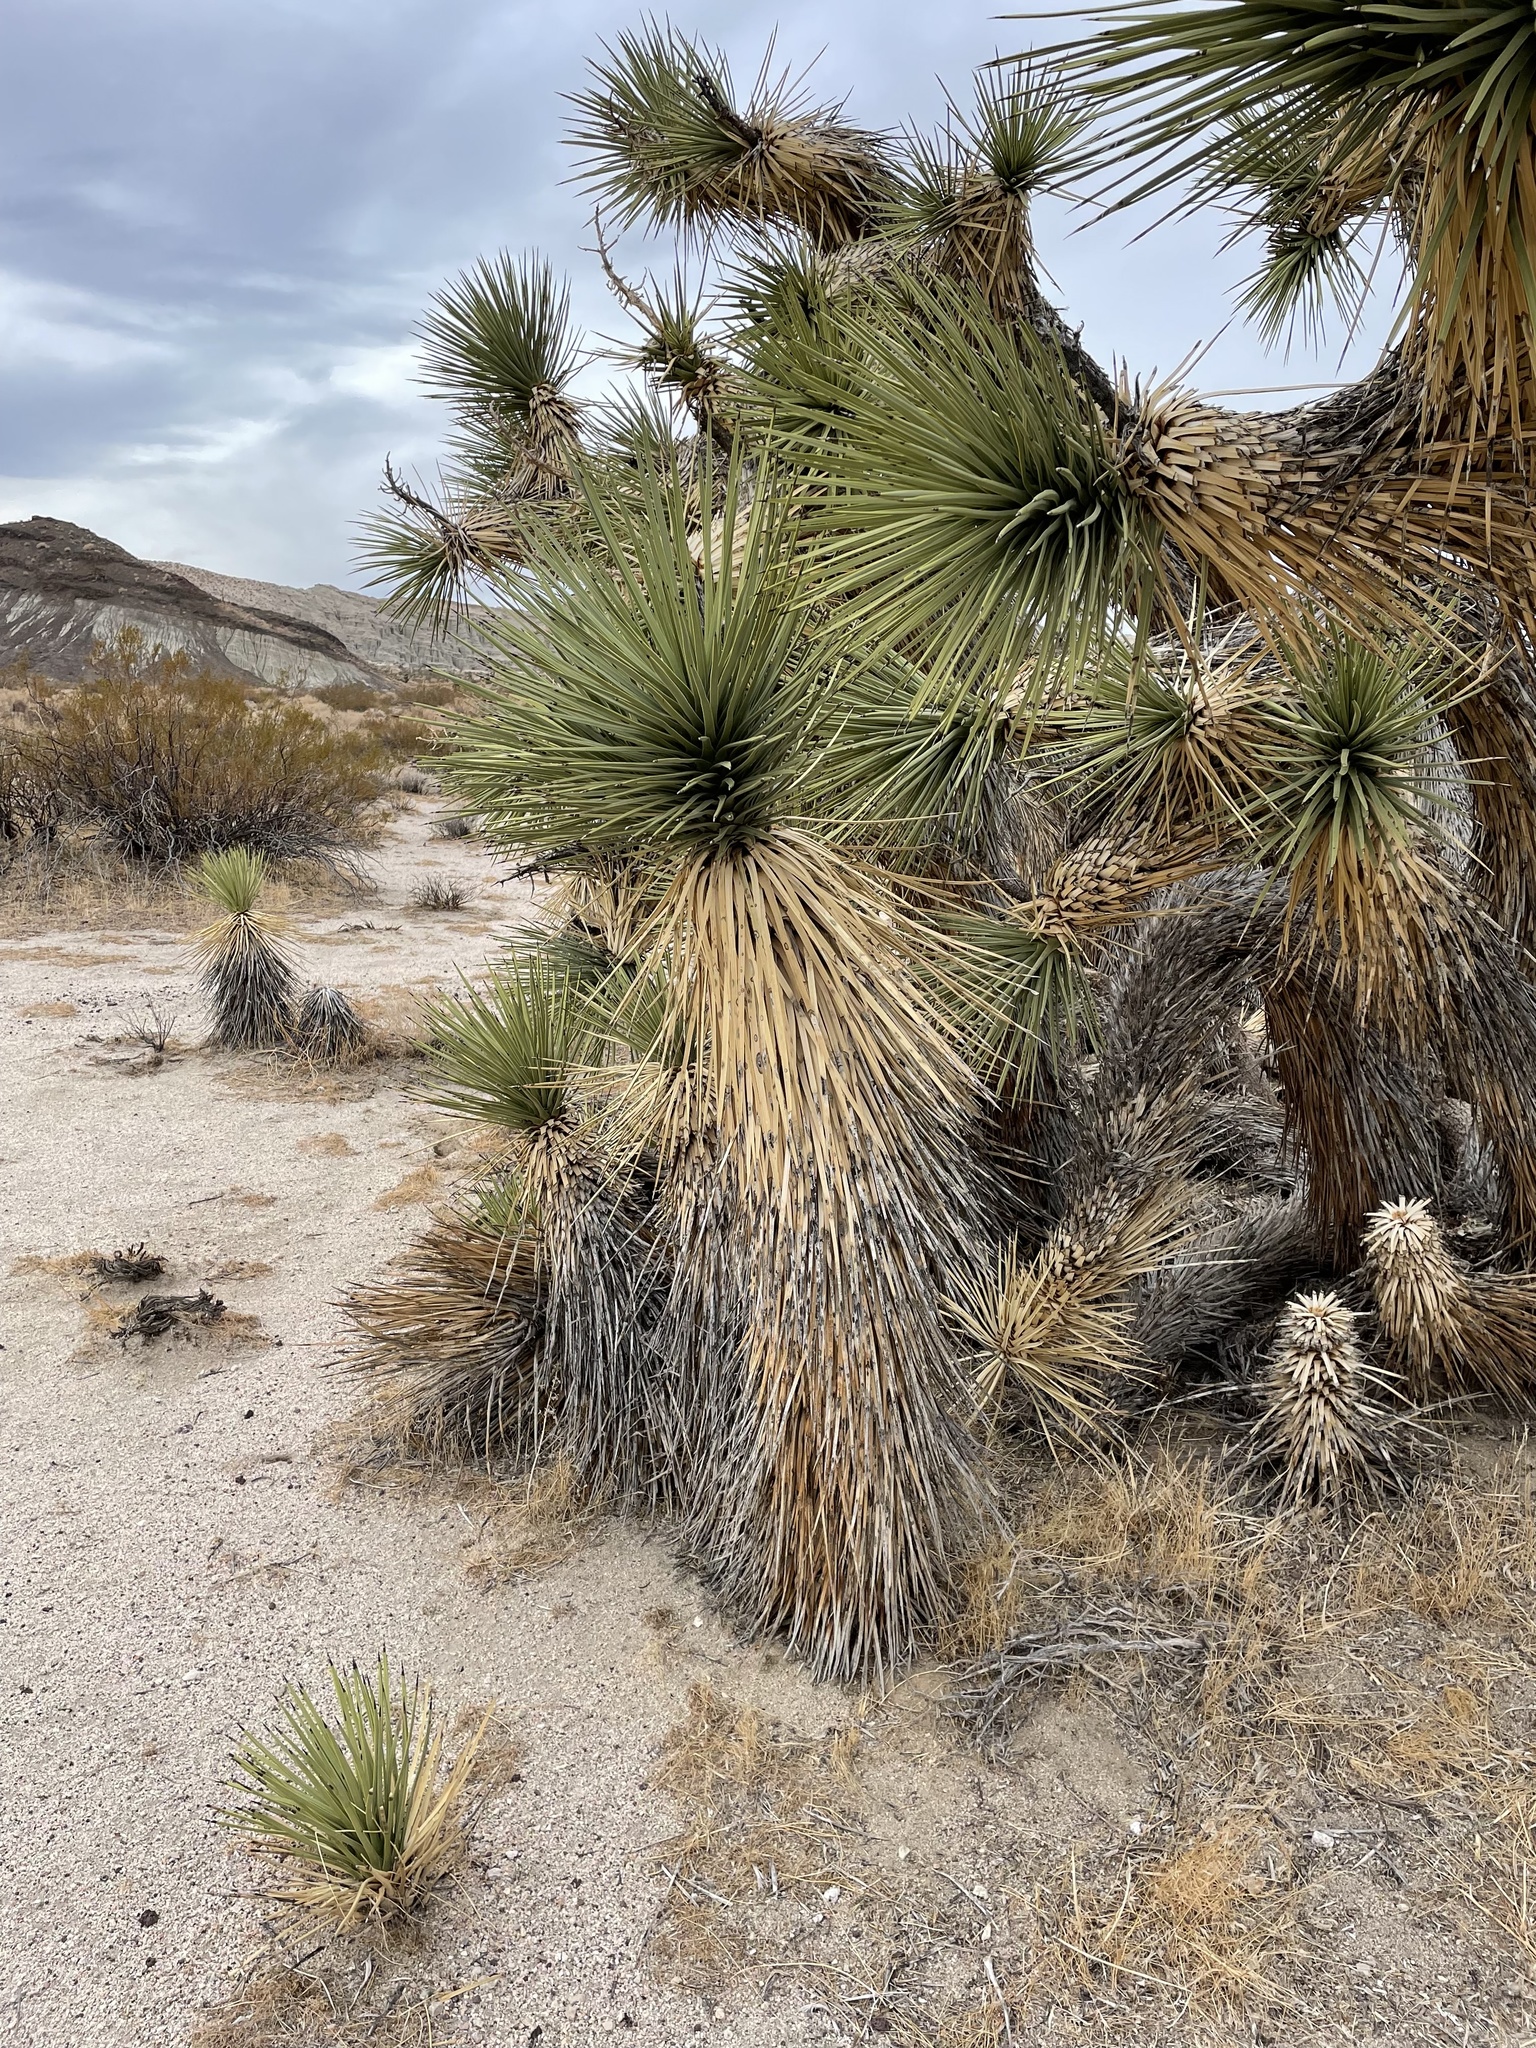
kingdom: Plantae
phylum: Tracheophyta
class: Liliopsida
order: Asparagales
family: Asparagaceae
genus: Yucca
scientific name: Yucca brevifolia
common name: Joshua tree
